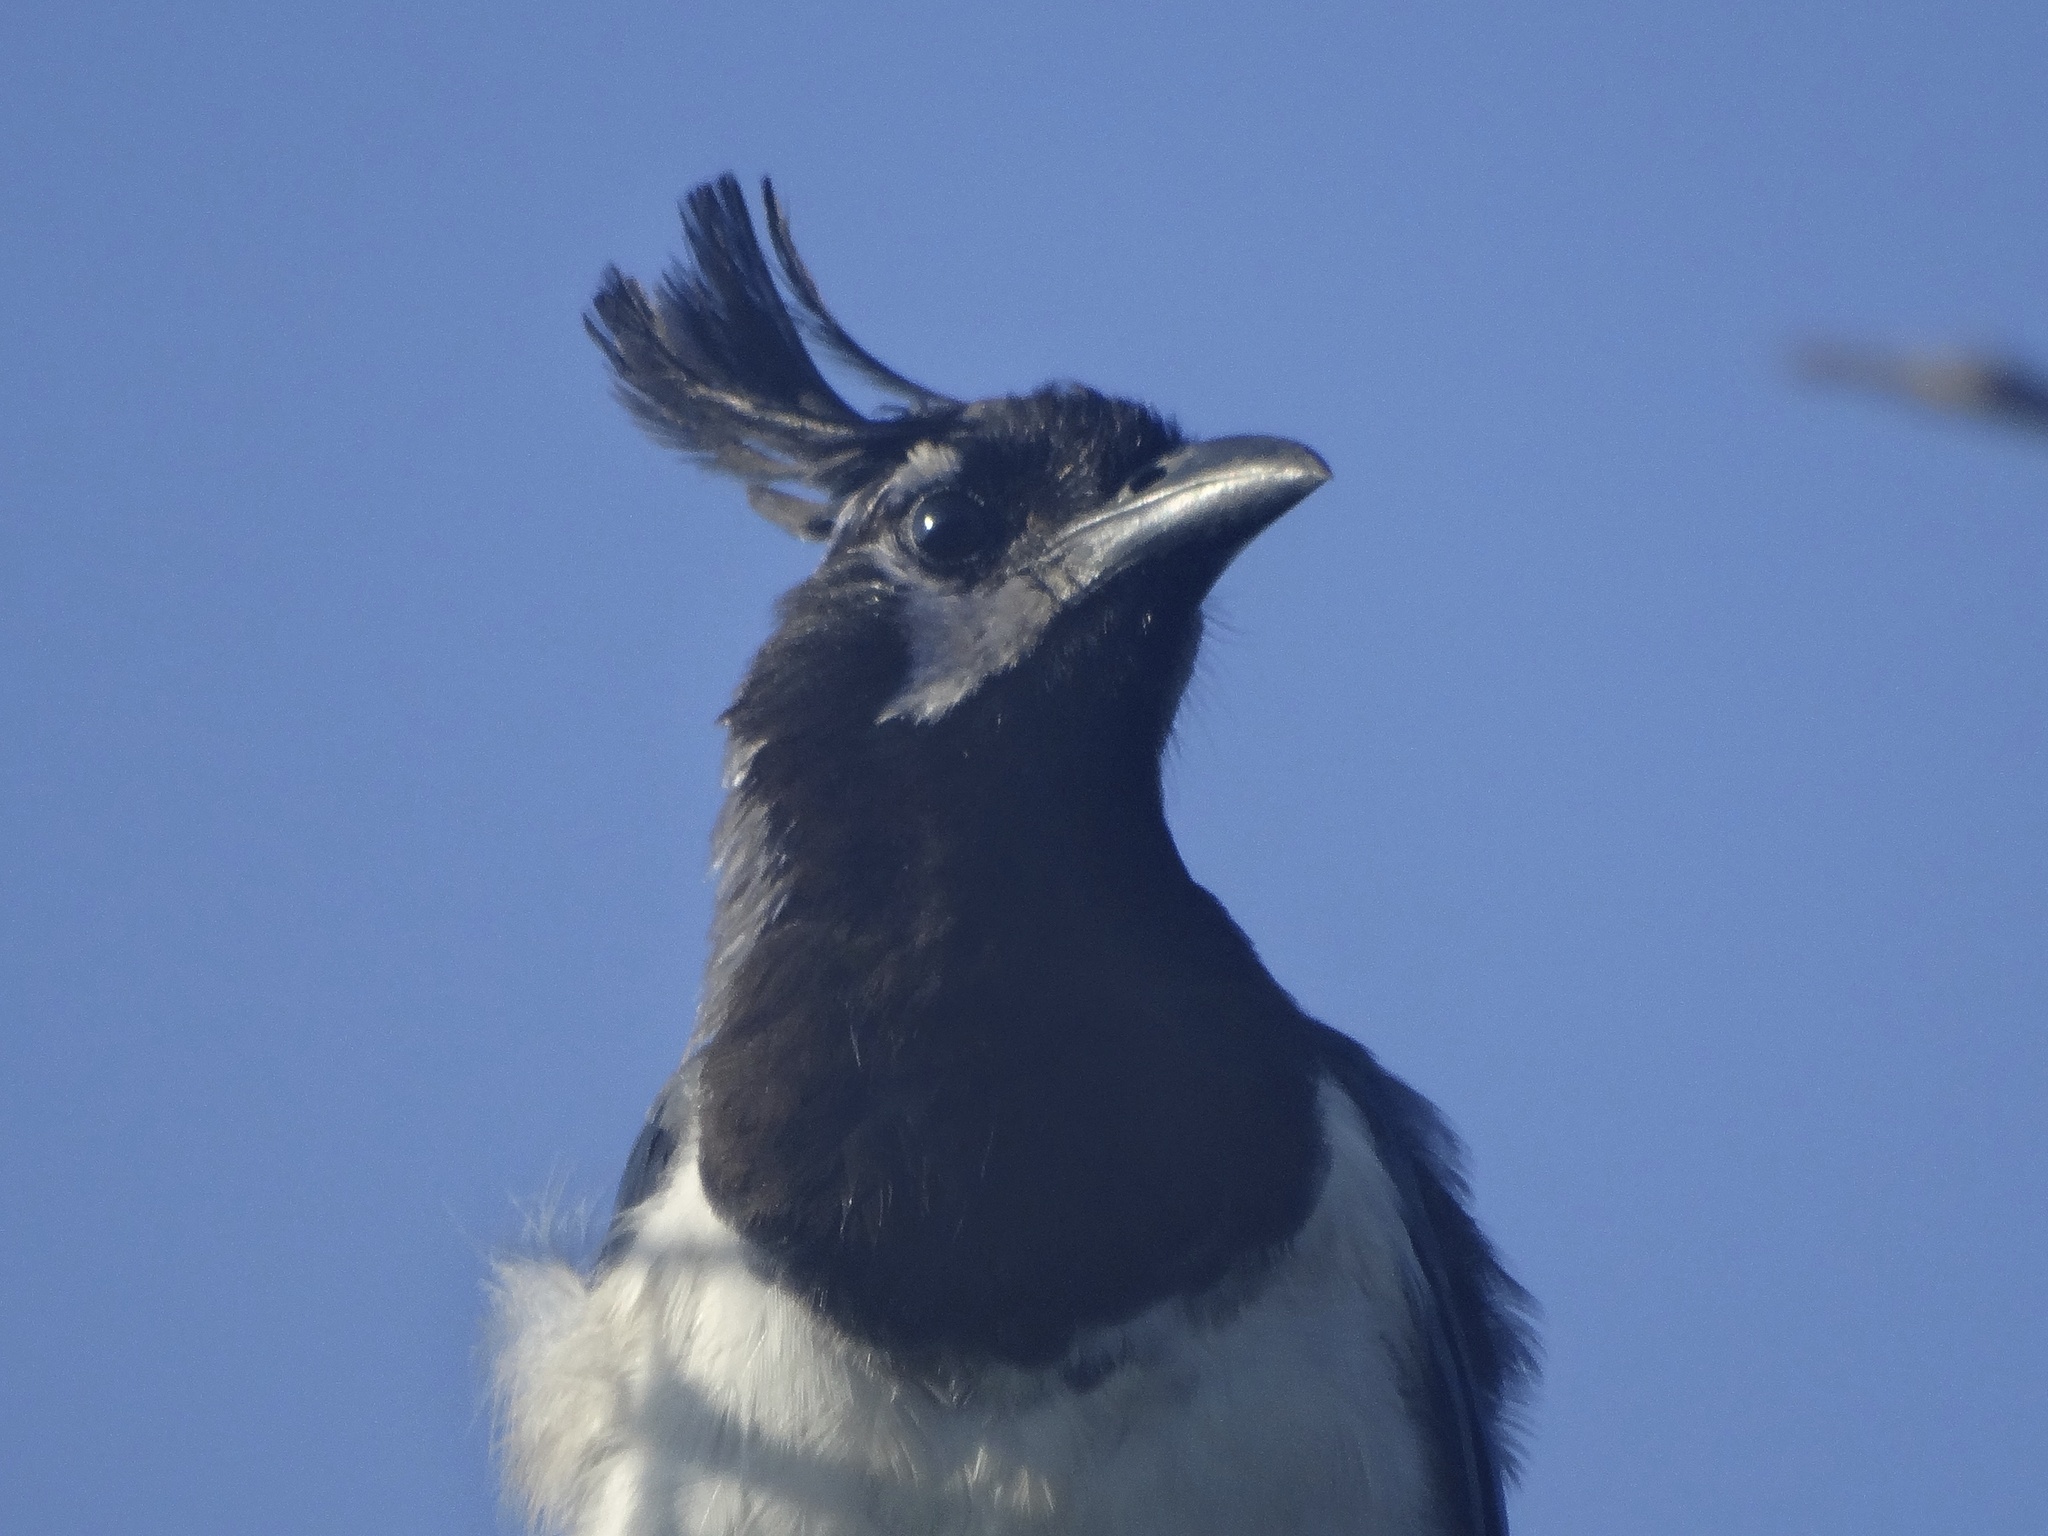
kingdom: Animalia
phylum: Chordata
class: Aves
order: Passeriformes
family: Corvidae
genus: Calocitta
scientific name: Calocitta colliei
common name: Black-throated magpie-jay
